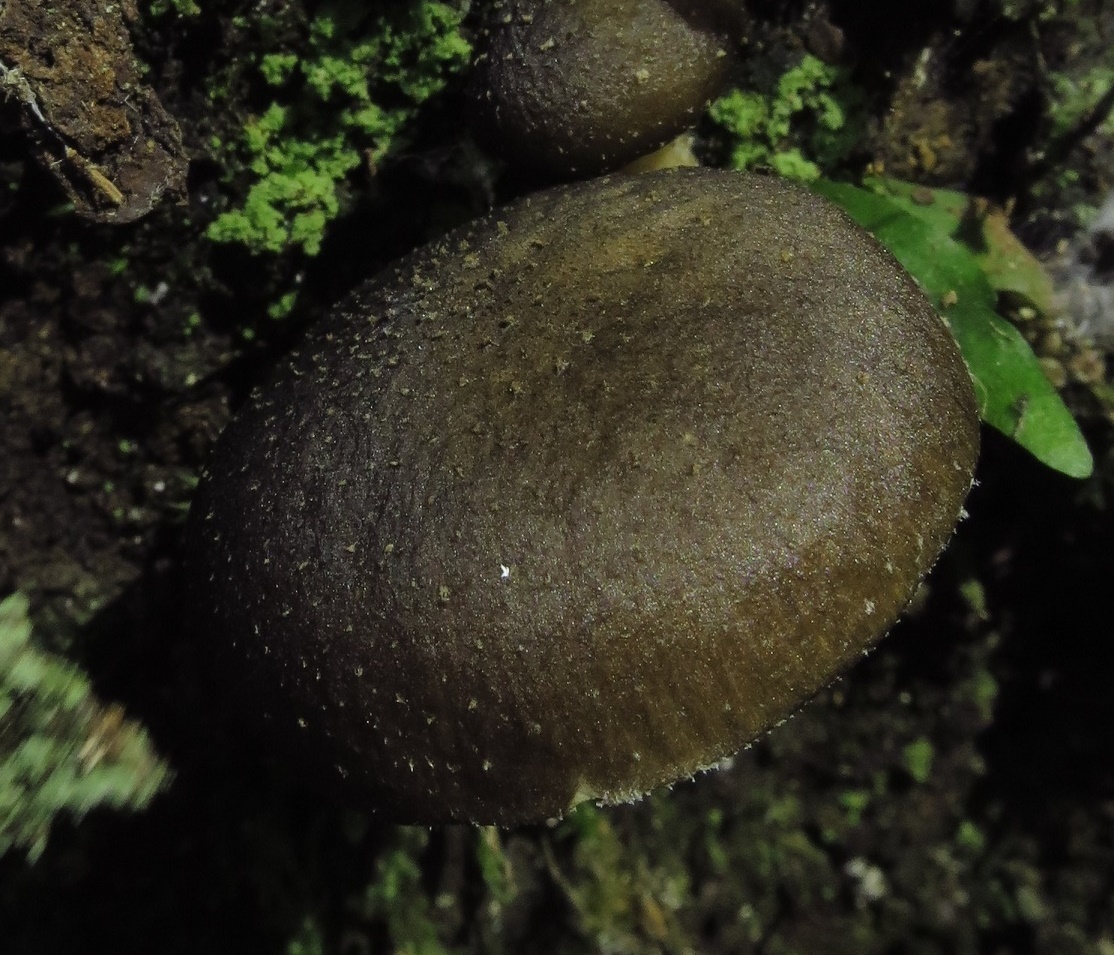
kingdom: Fungi
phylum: Basidiomycota
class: Agaricomycetes
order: Agaricales
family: Physalacriaceae
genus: Armillaria
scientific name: Armillaria novae-zelandiae
